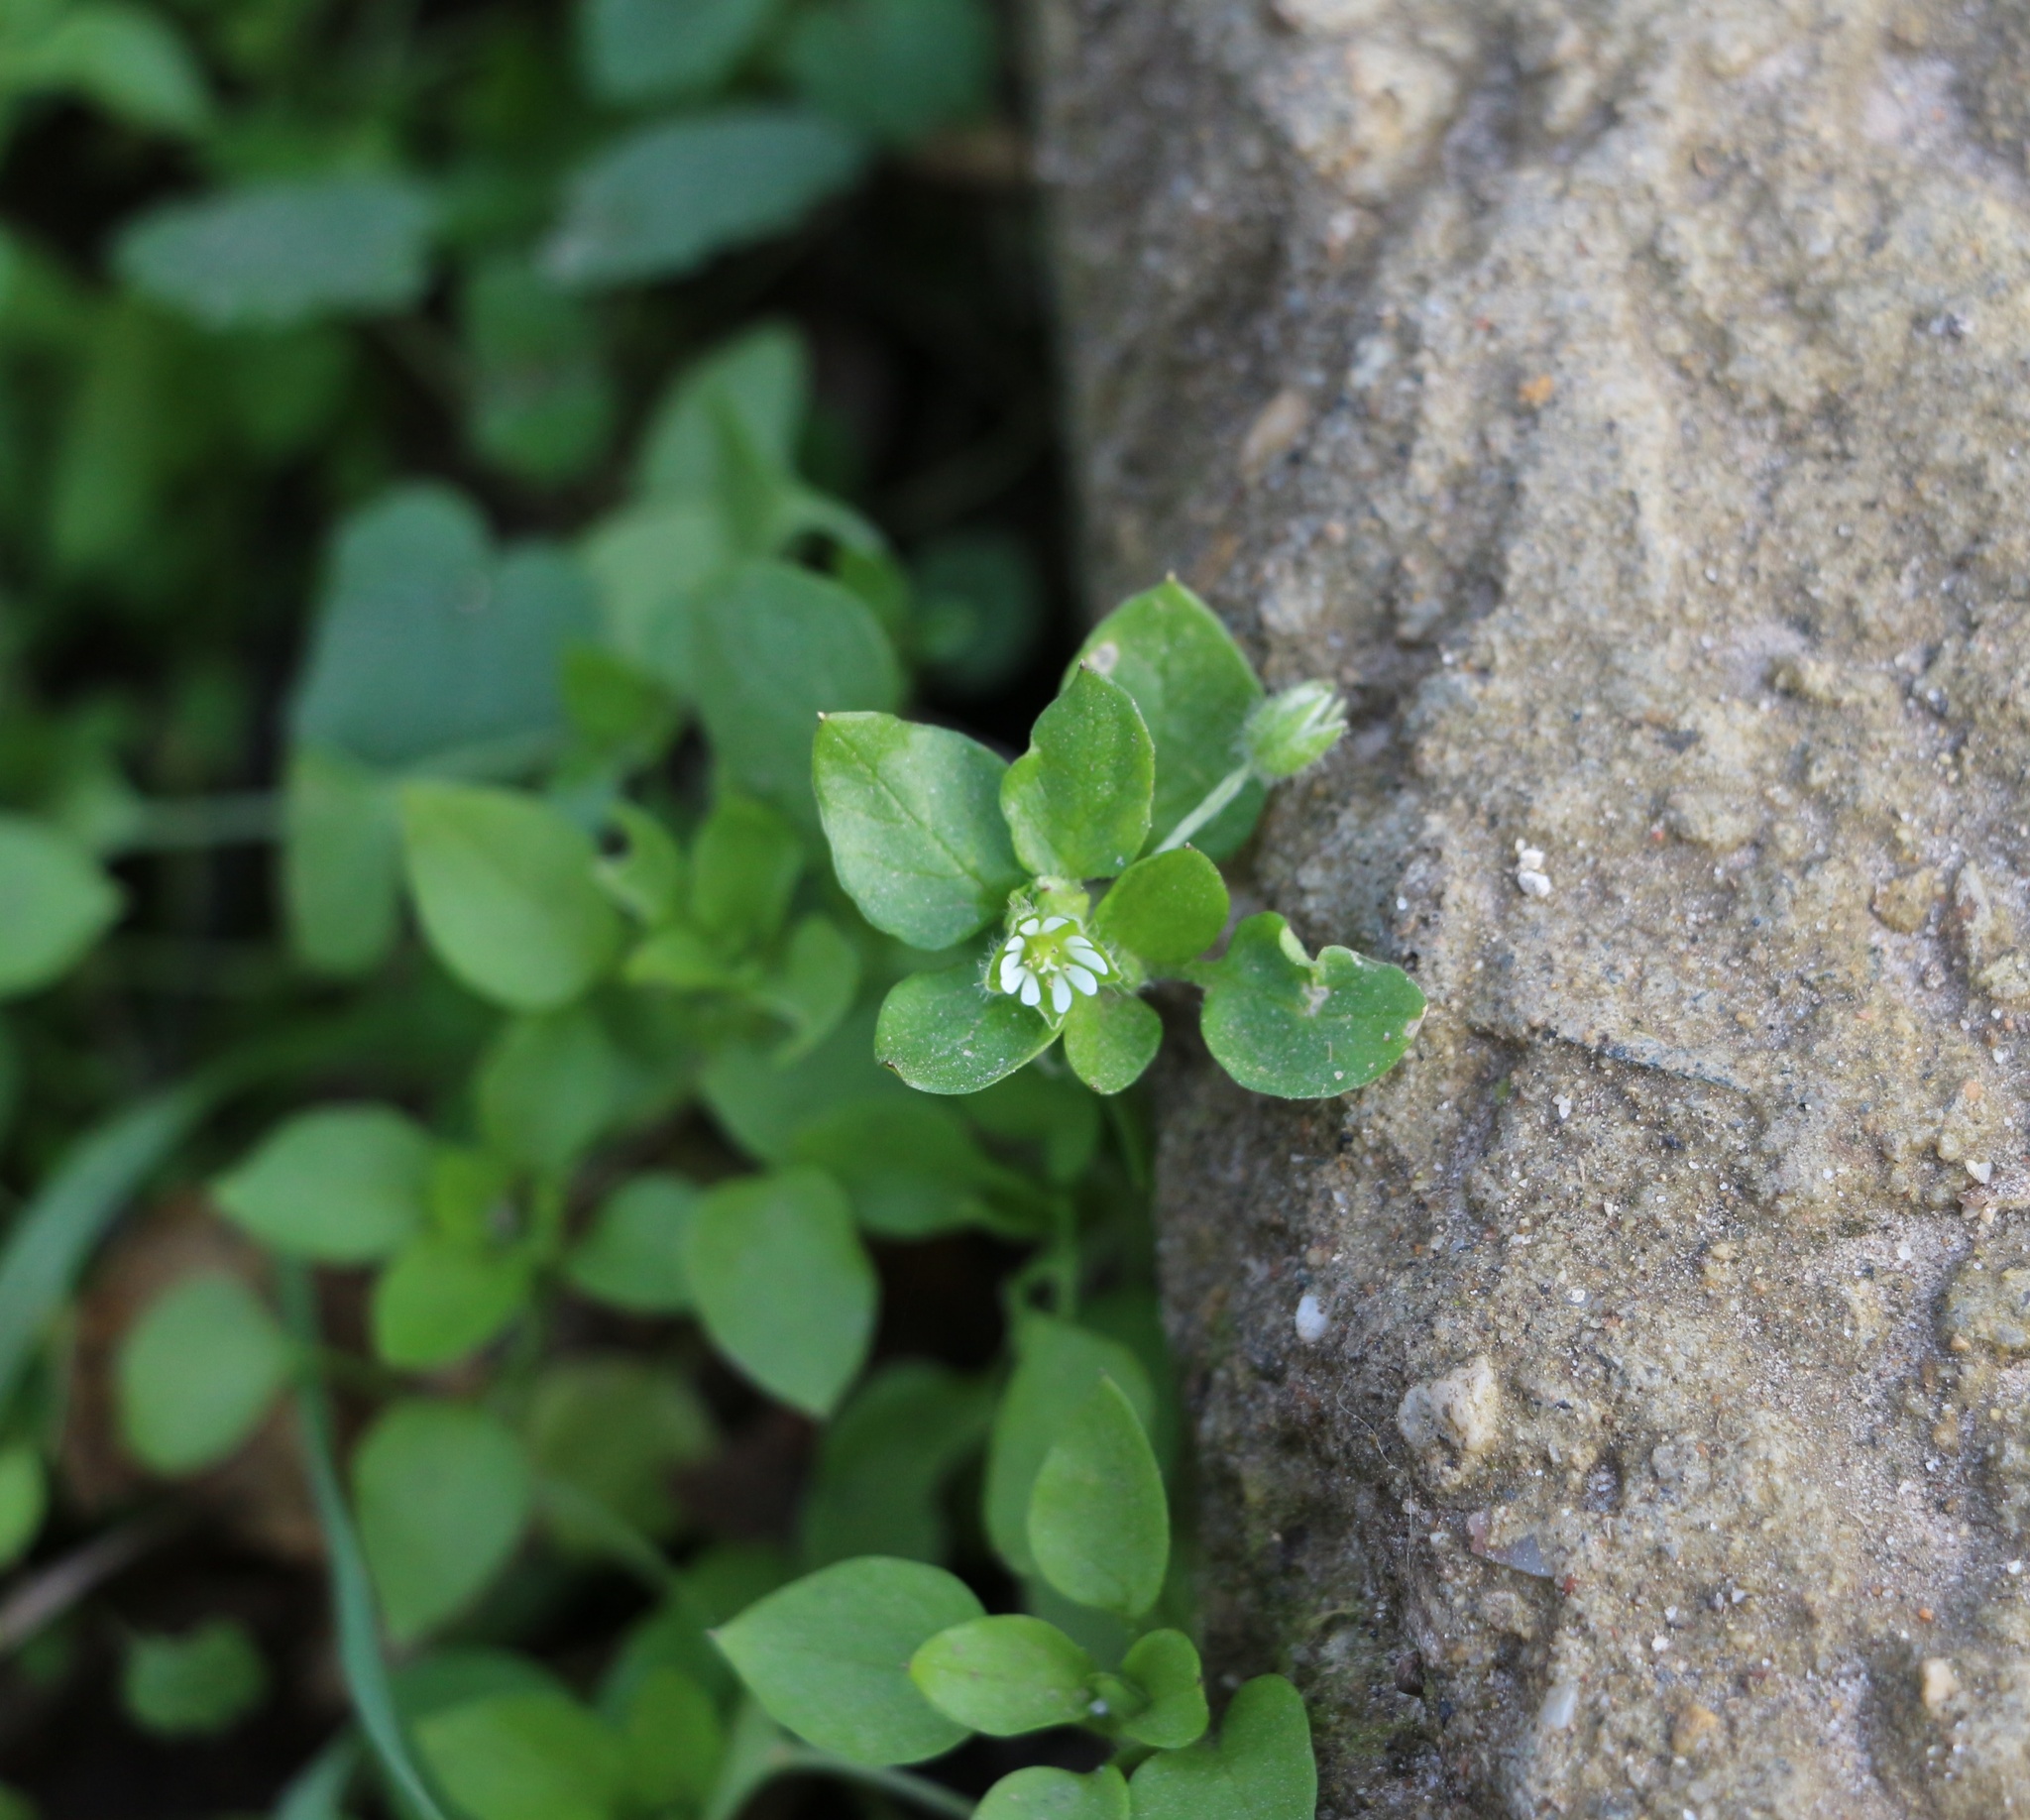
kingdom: Plantae
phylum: Tracheophyta
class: Magnoliopsida
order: Caryophyllales
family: Caryophyllaceae
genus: Stellaria
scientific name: Stellaria media
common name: Common chickweed
